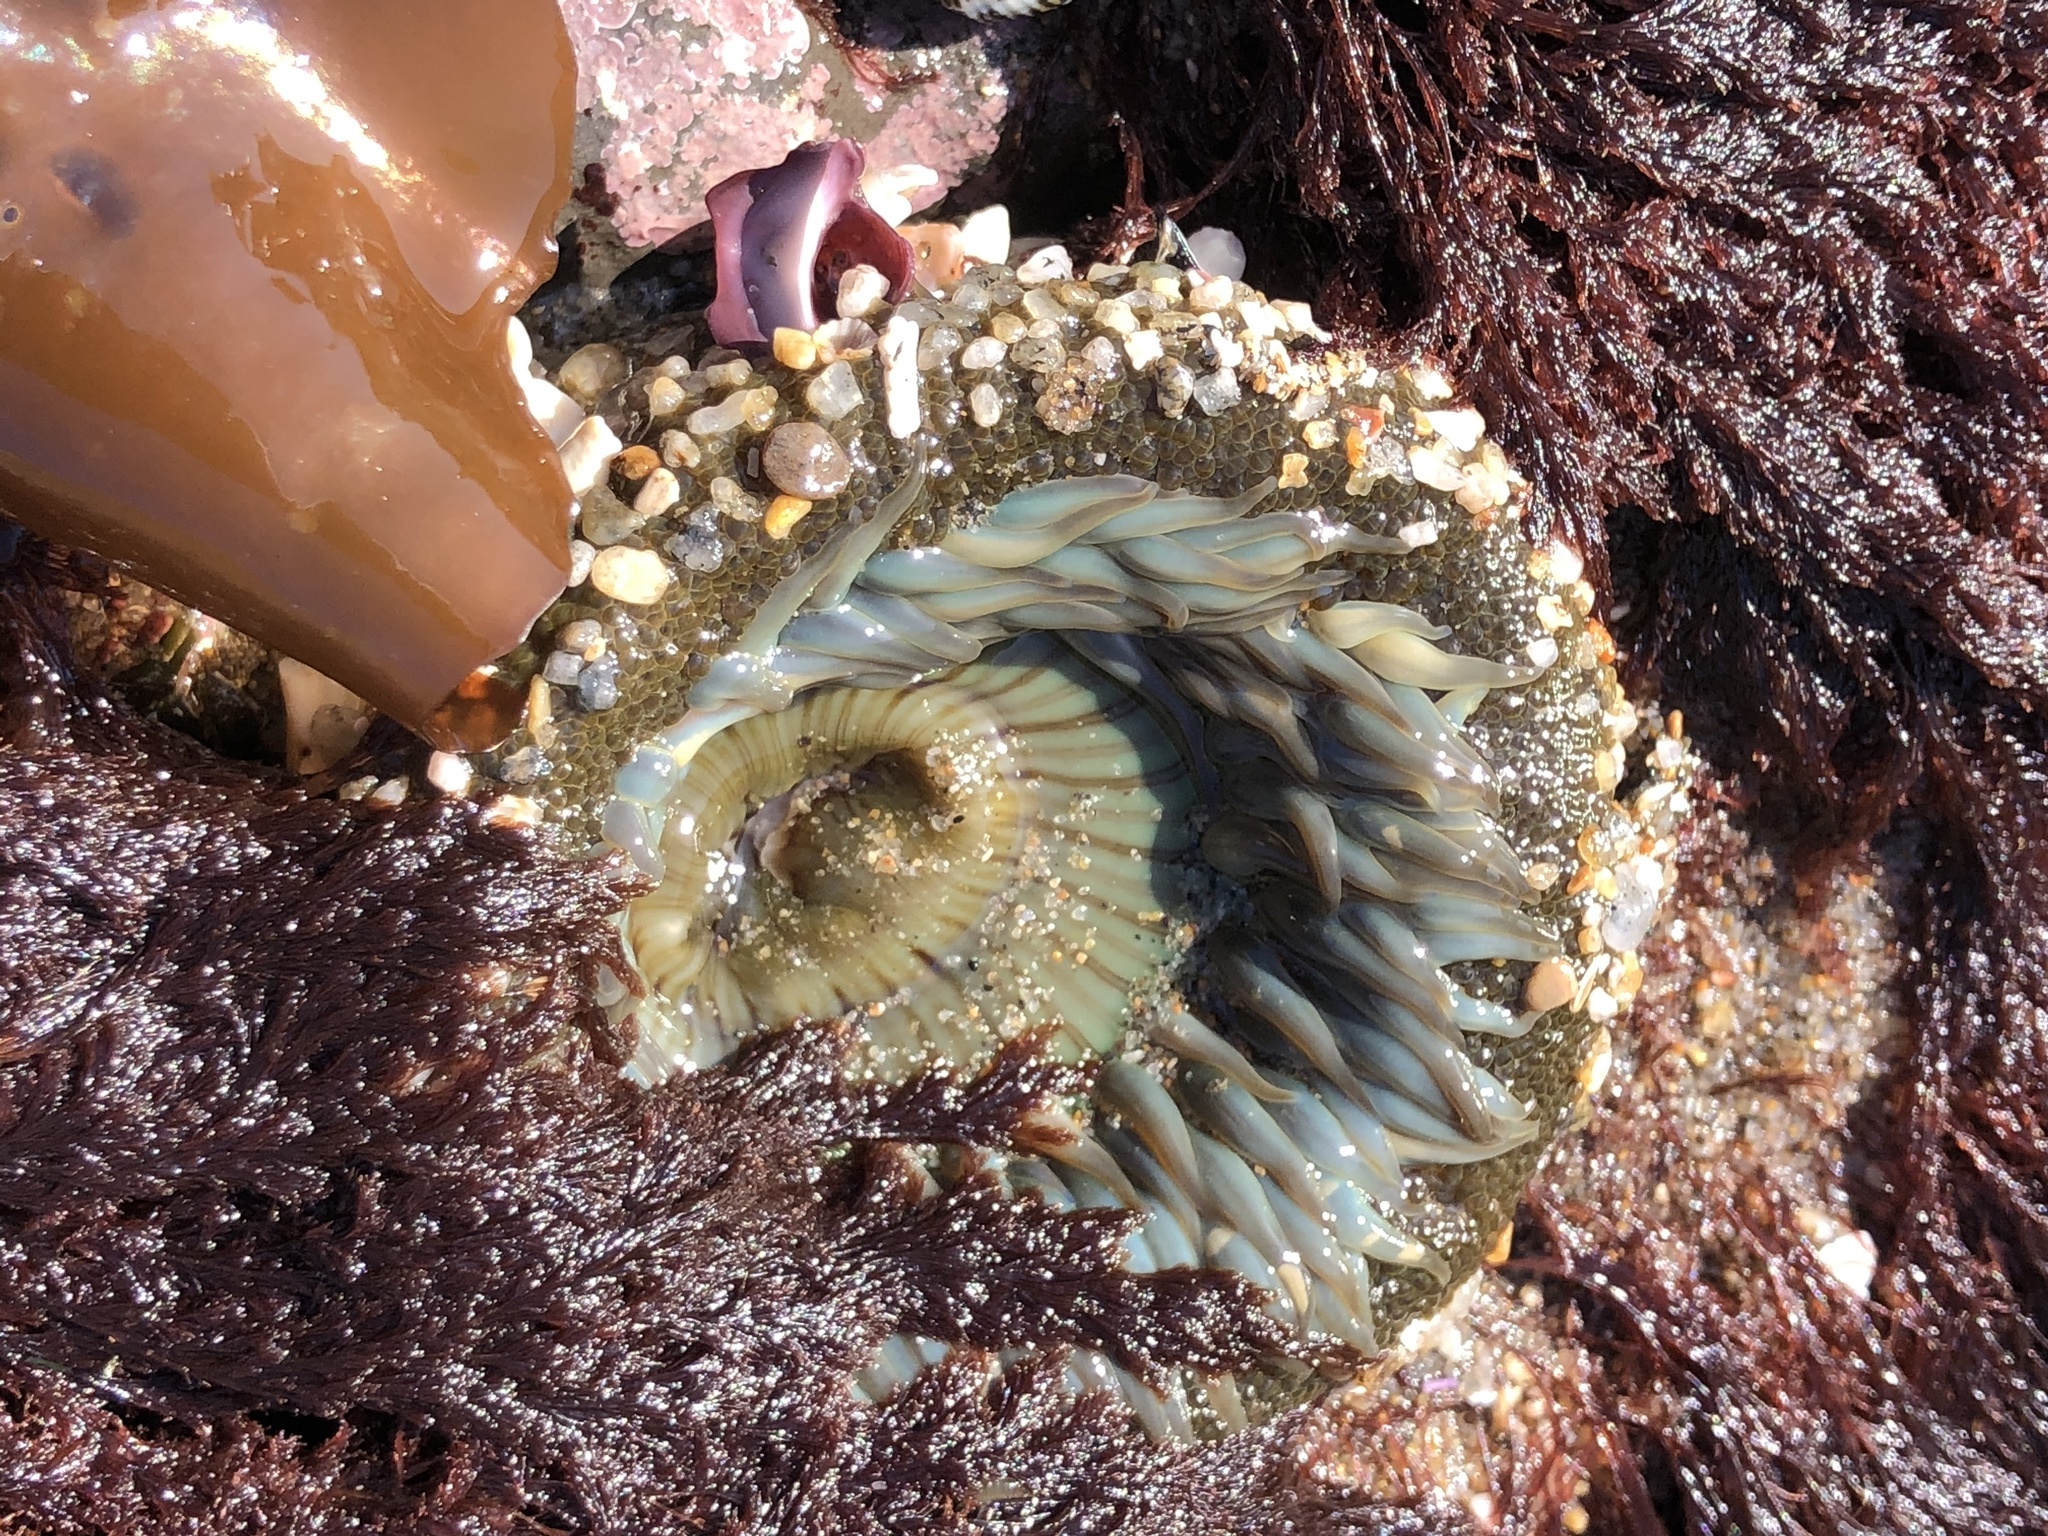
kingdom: Animalia
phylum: Cnidaria
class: Anthozoa
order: Actiniaria
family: Actiniidae
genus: Anthopleura
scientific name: Anthopleura sola
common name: Sun anemone
